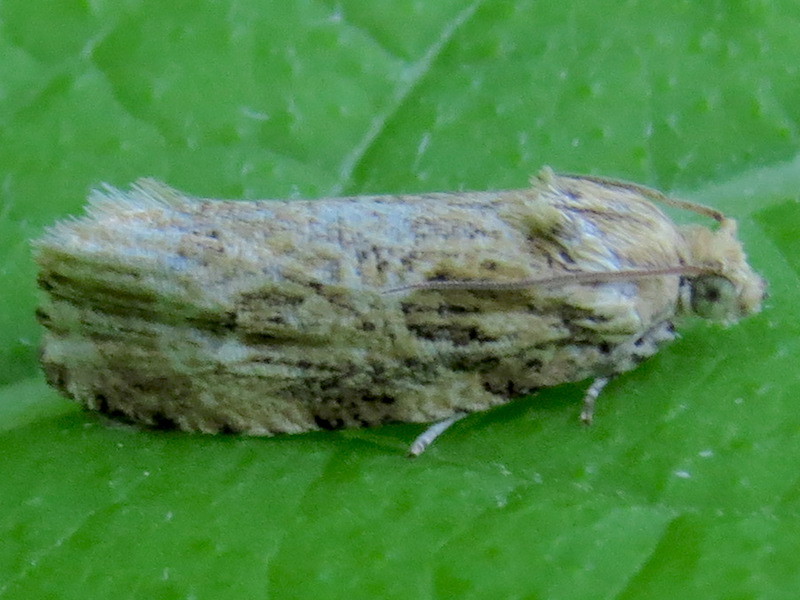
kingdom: Animalia
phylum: Arthropoda
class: Insecta
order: Lepidoptera
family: Tortricidae
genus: Phaecasiophora
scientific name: Phaecasiophora confixana
